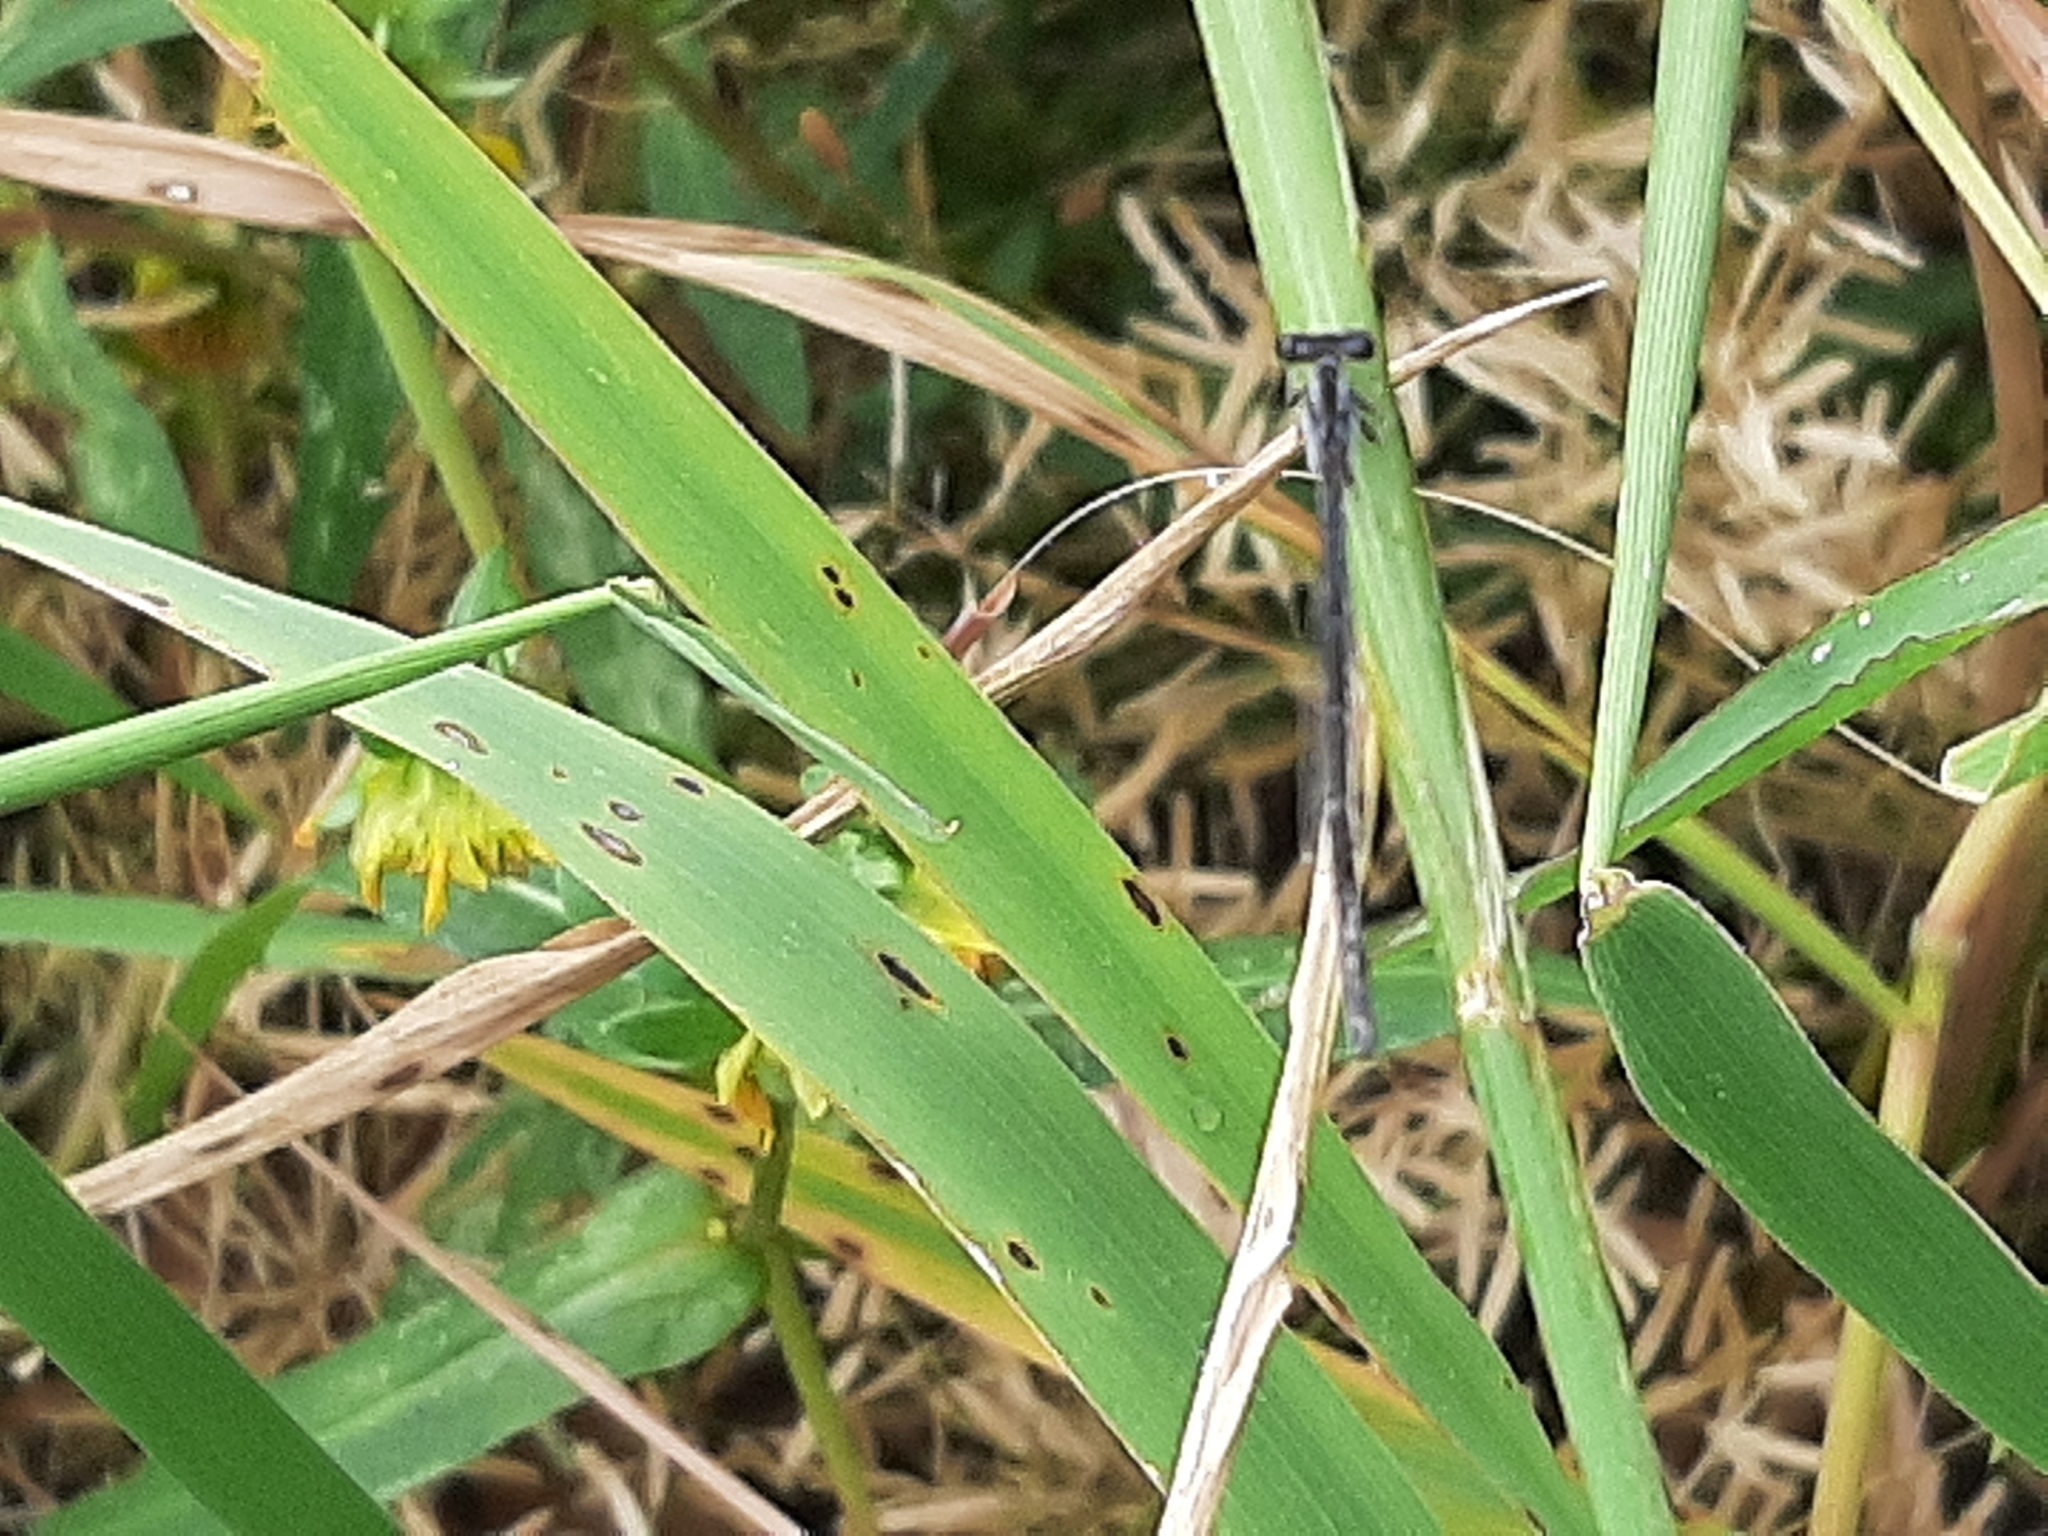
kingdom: Animalia
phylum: Arthropoda
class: Insecta
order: Odonata
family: Coenagrionidae
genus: Ischnura
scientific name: Ischnura posita
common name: Fragile forktail
